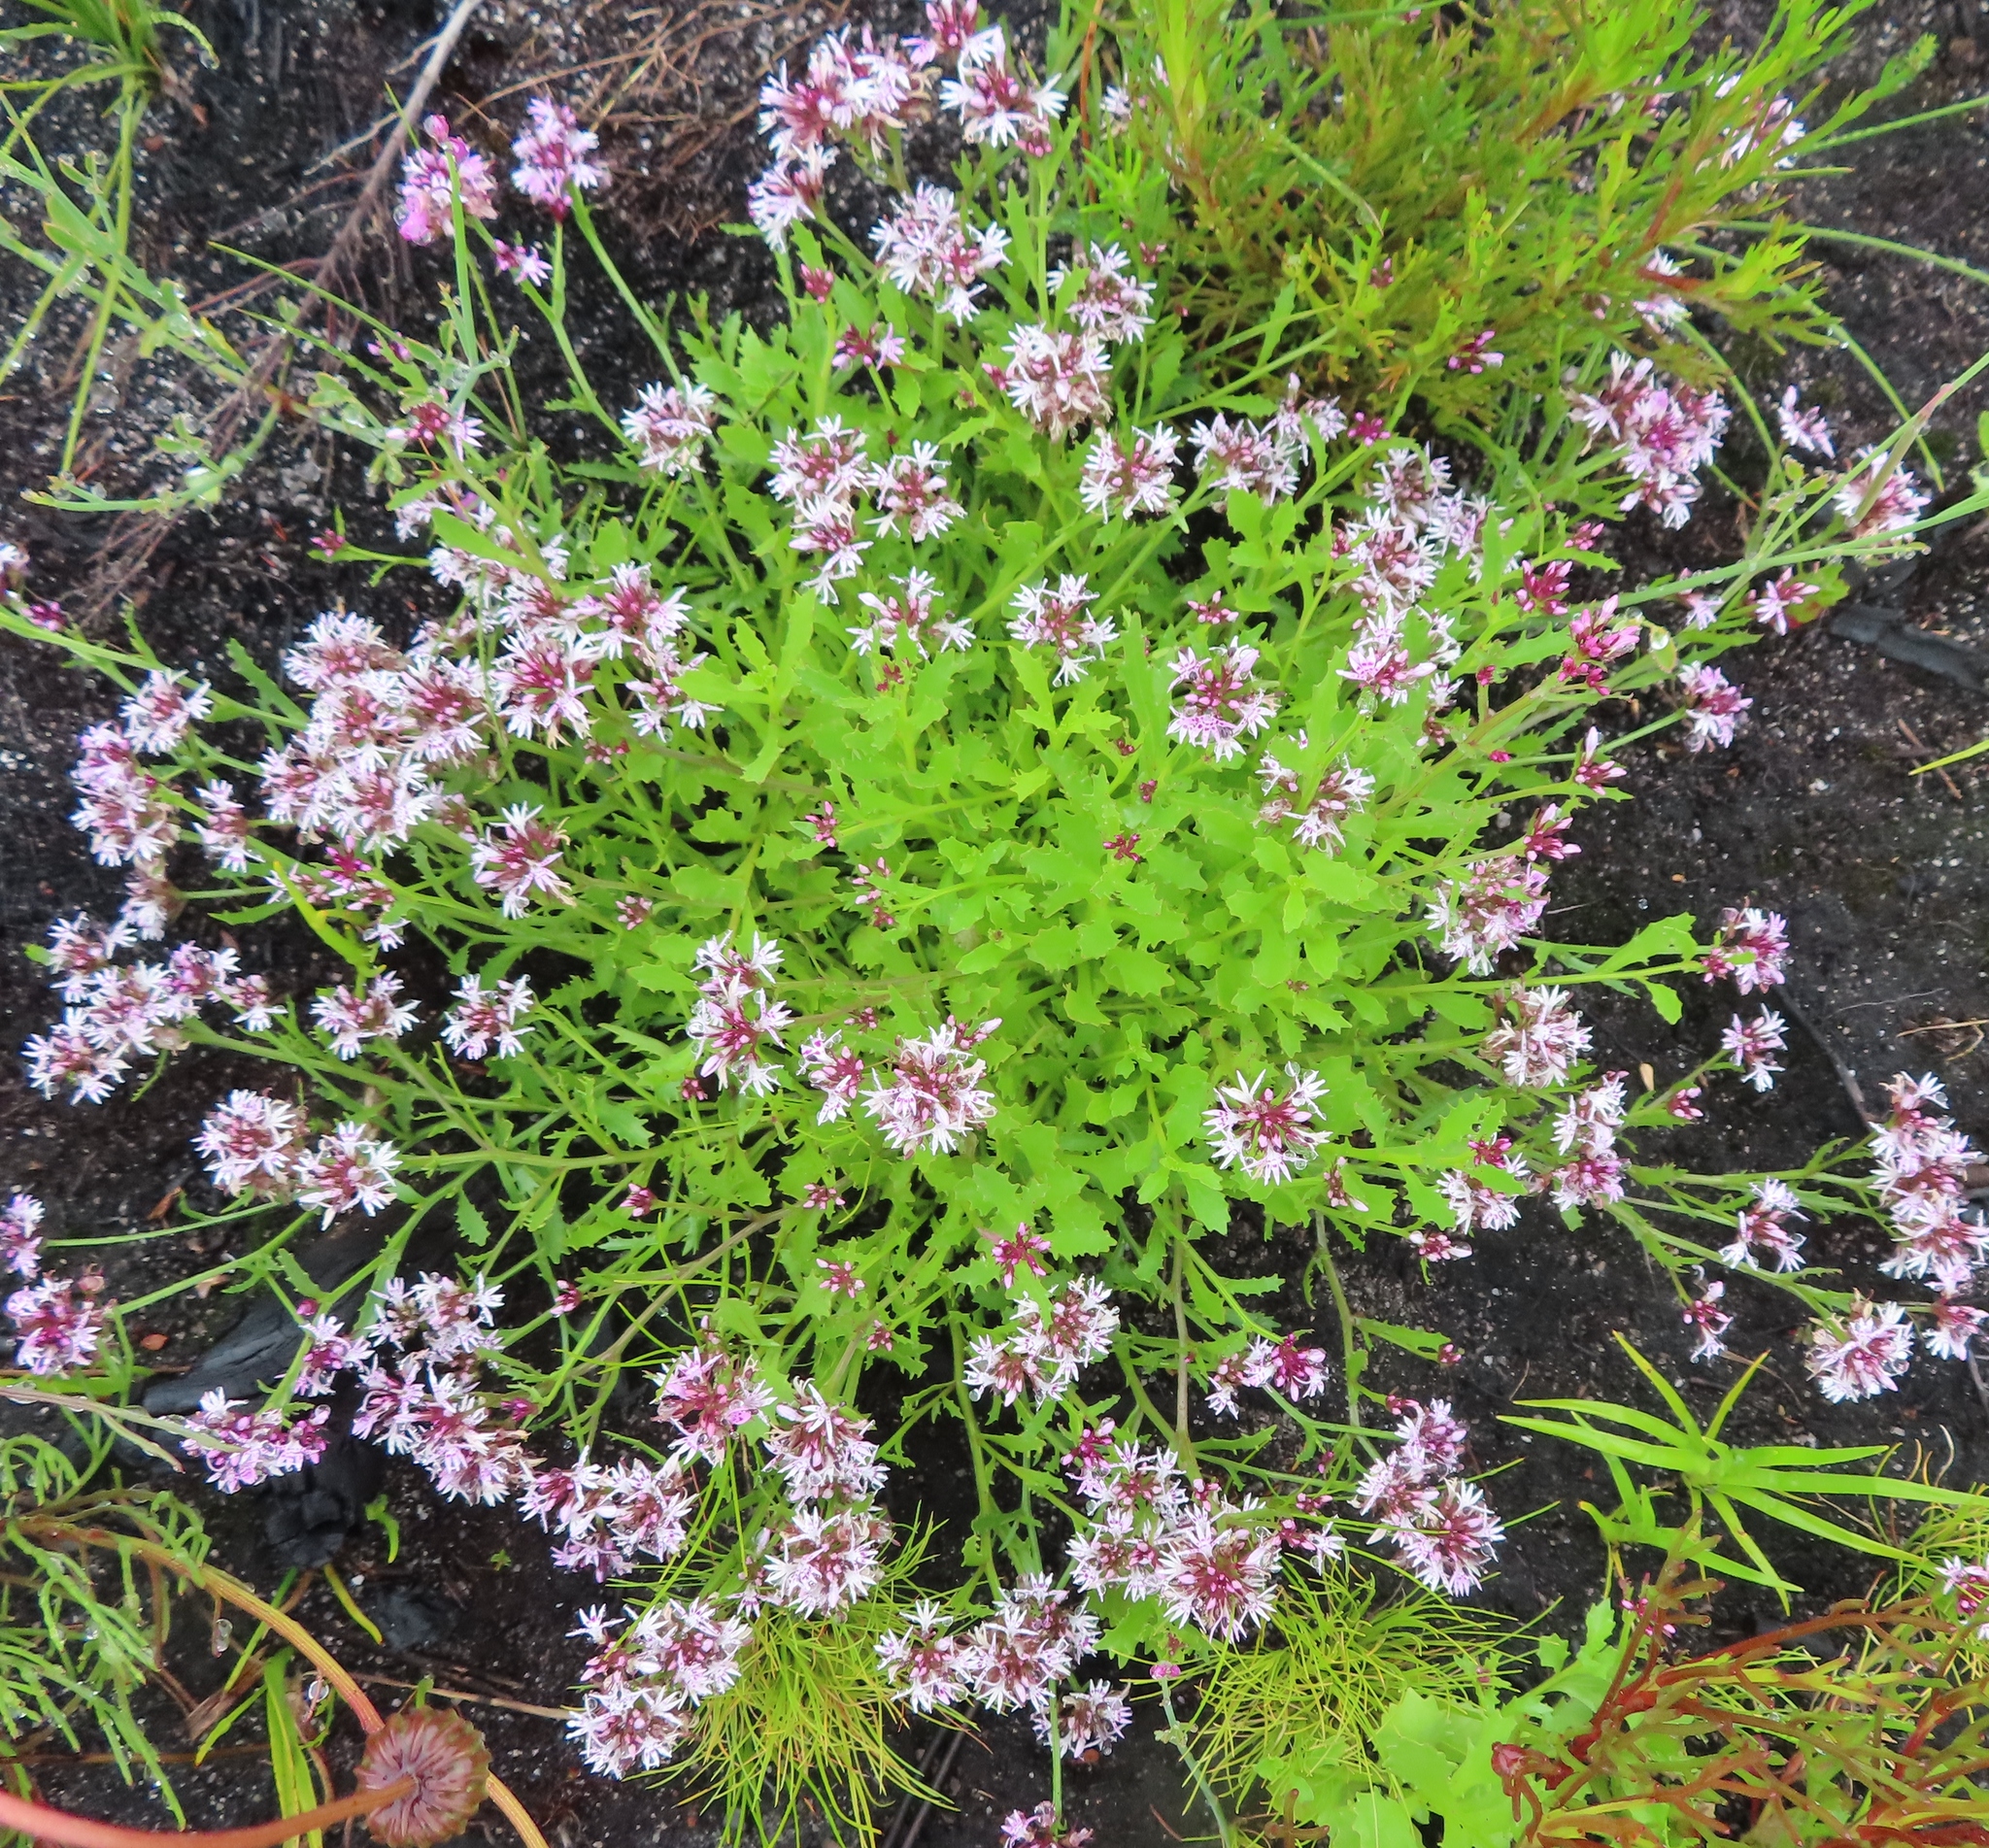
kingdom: Plantae
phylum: Tracheophyta
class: Magnoliopsida
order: Asterales
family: Campanulaceae
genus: Lobelia
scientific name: Lobelia jasionoides
